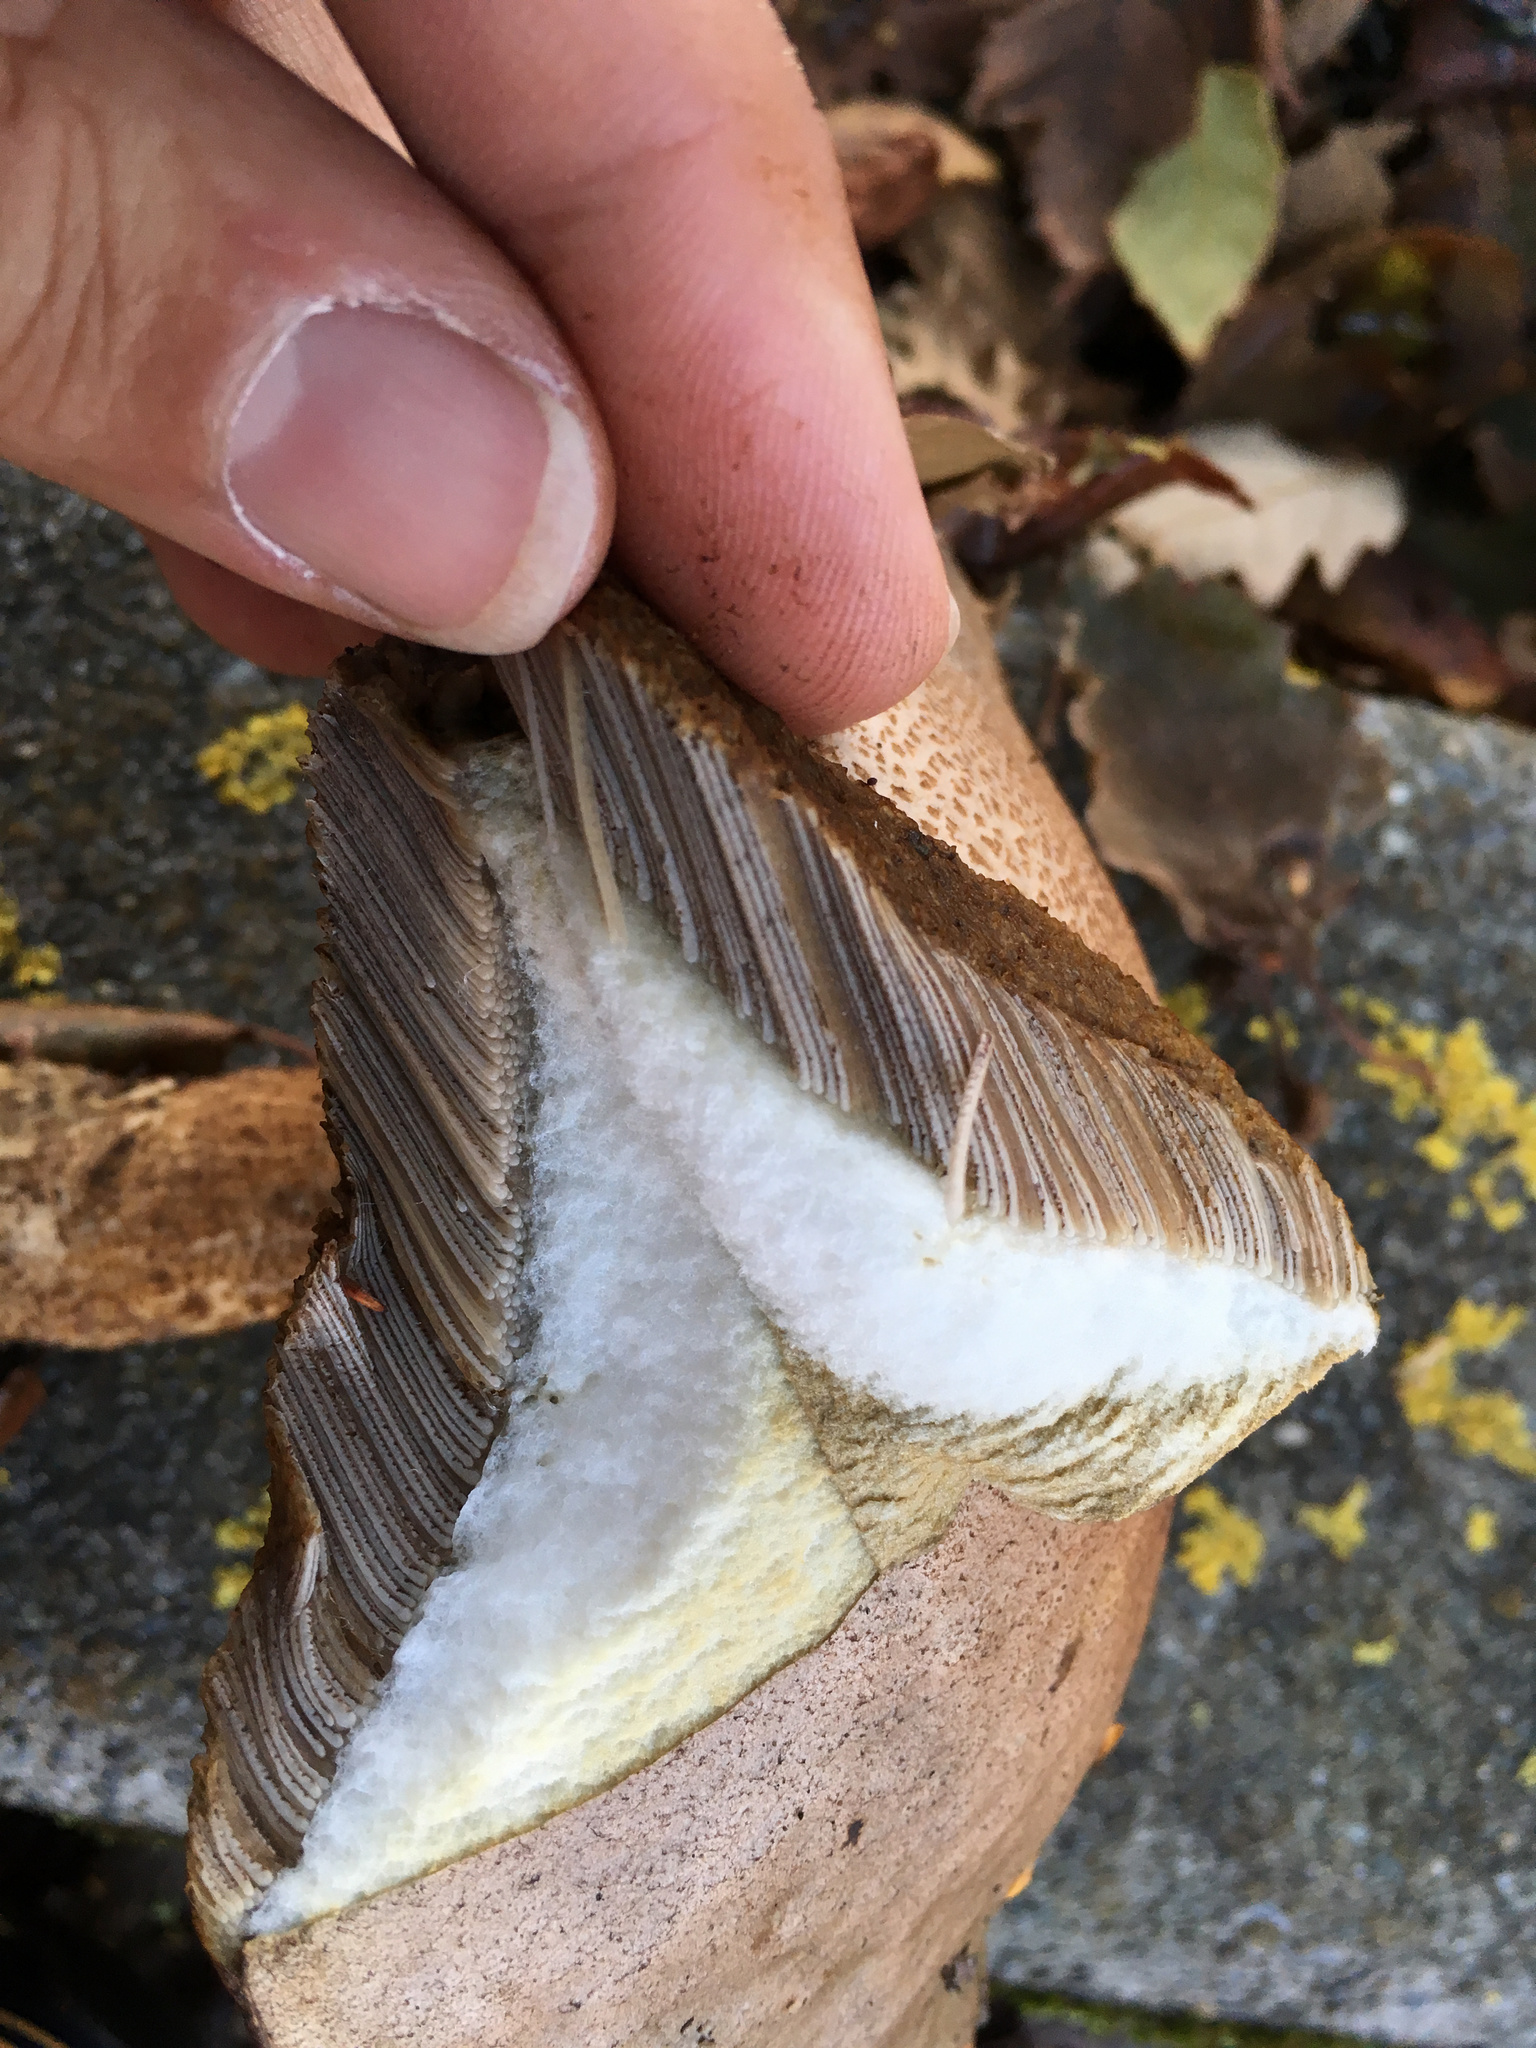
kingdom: Fungi
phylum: Basidiomycota
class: Agaricomycetes
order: Boletales
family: Boletaceae
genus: Leccinum
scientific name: Leccinum scabrum
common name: Blushing bolete
